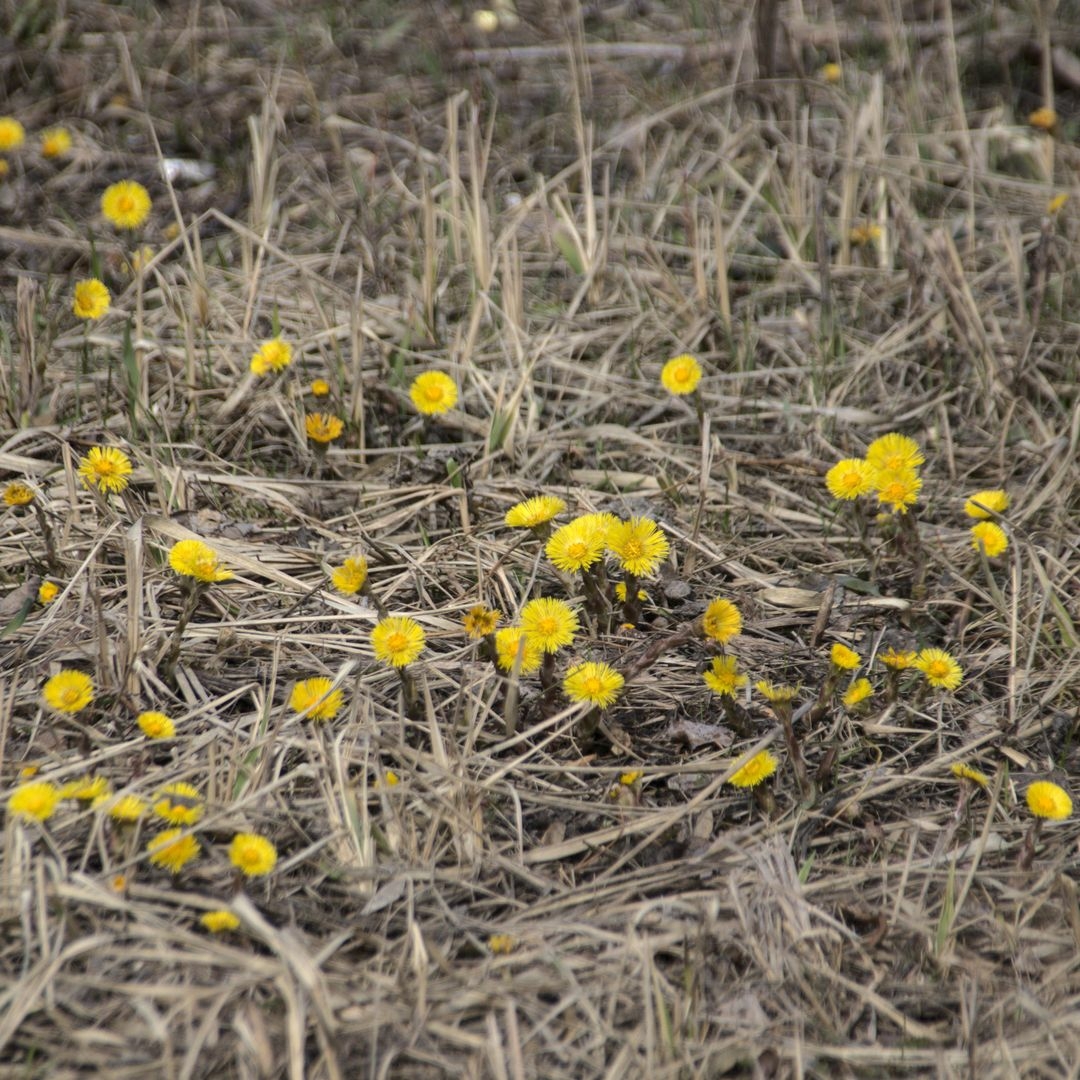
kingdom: Plantae
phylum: Tracheophyta
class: Magnoliopsida
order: Asterales
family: Asteraceae
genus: Tussilago
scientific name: Tussilago farfara
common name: Coltsfoot
